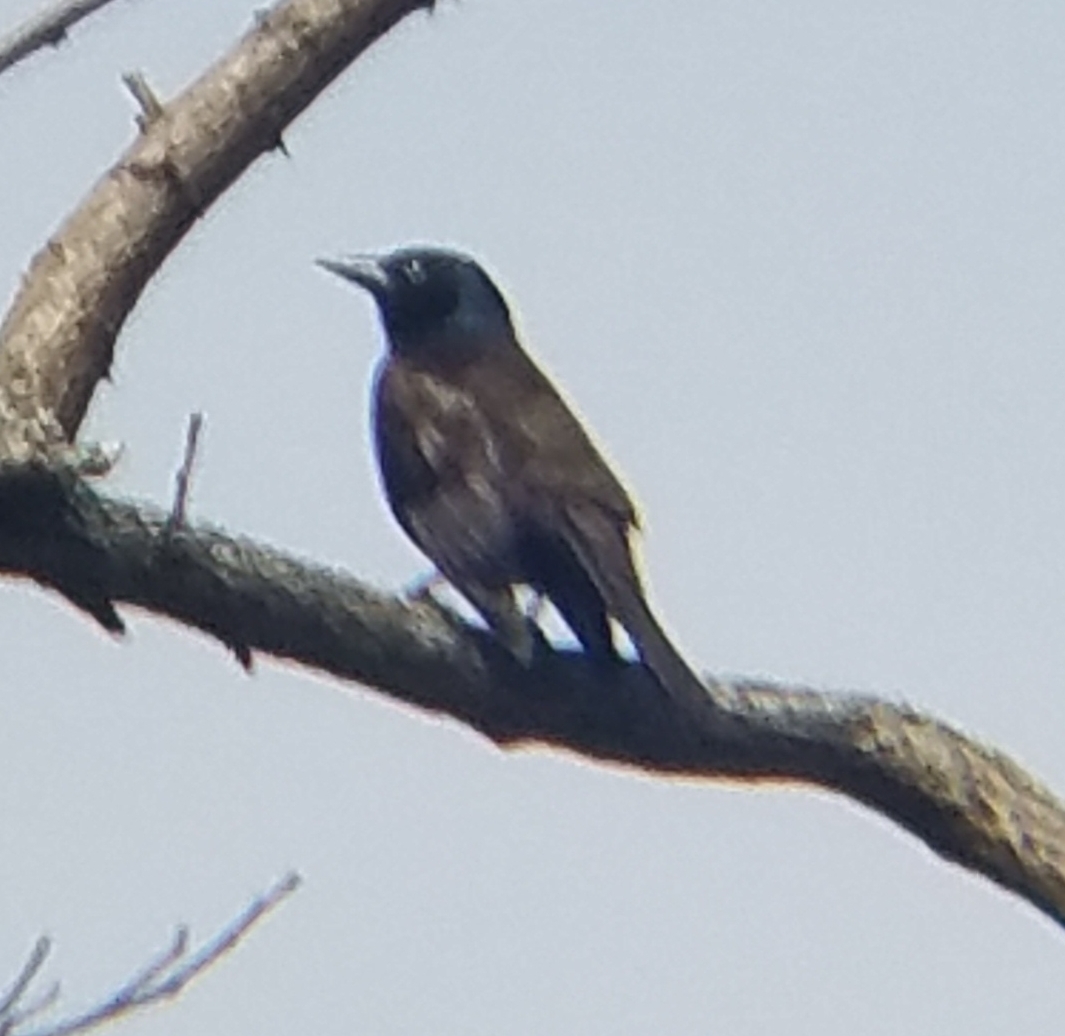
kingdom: Animalia
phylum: Chordata
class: Aves
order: Passeriformes
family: Icteridae
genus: Quiscalus
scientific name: Quiscalus quiscula
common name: Common grackle
